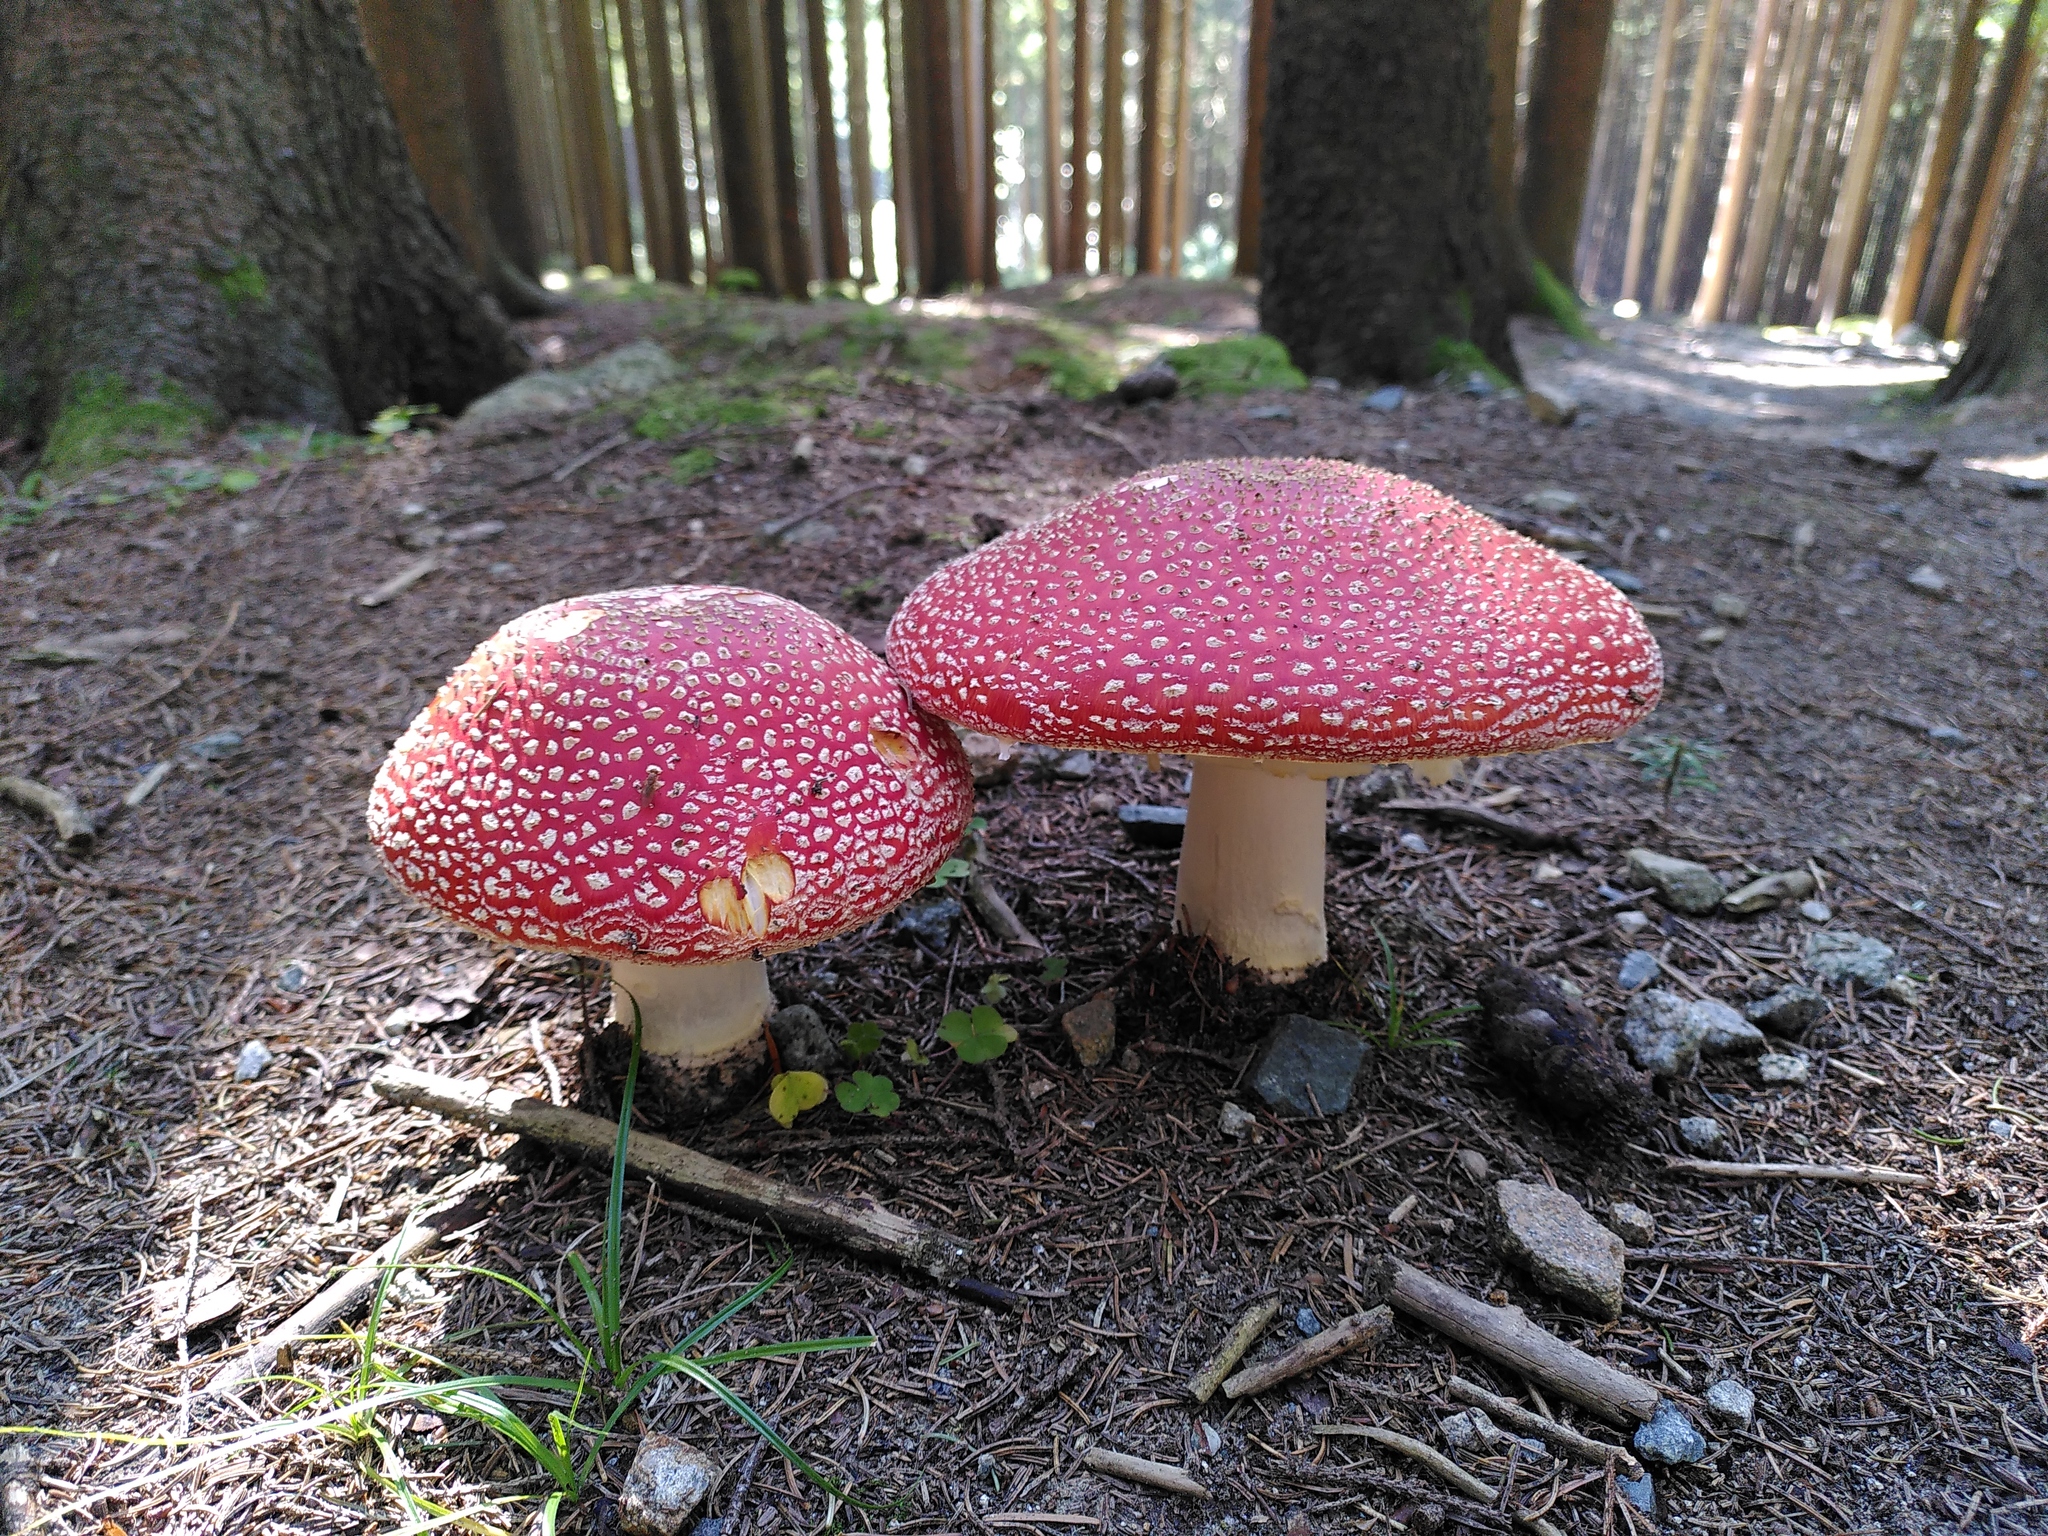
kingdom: Fungi
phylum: Basidiomycota
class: Agaricomycetes
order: Agaricales
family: Amanitaceae
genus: Amanita
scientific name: Amanita muscaria
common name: Fly agaric
